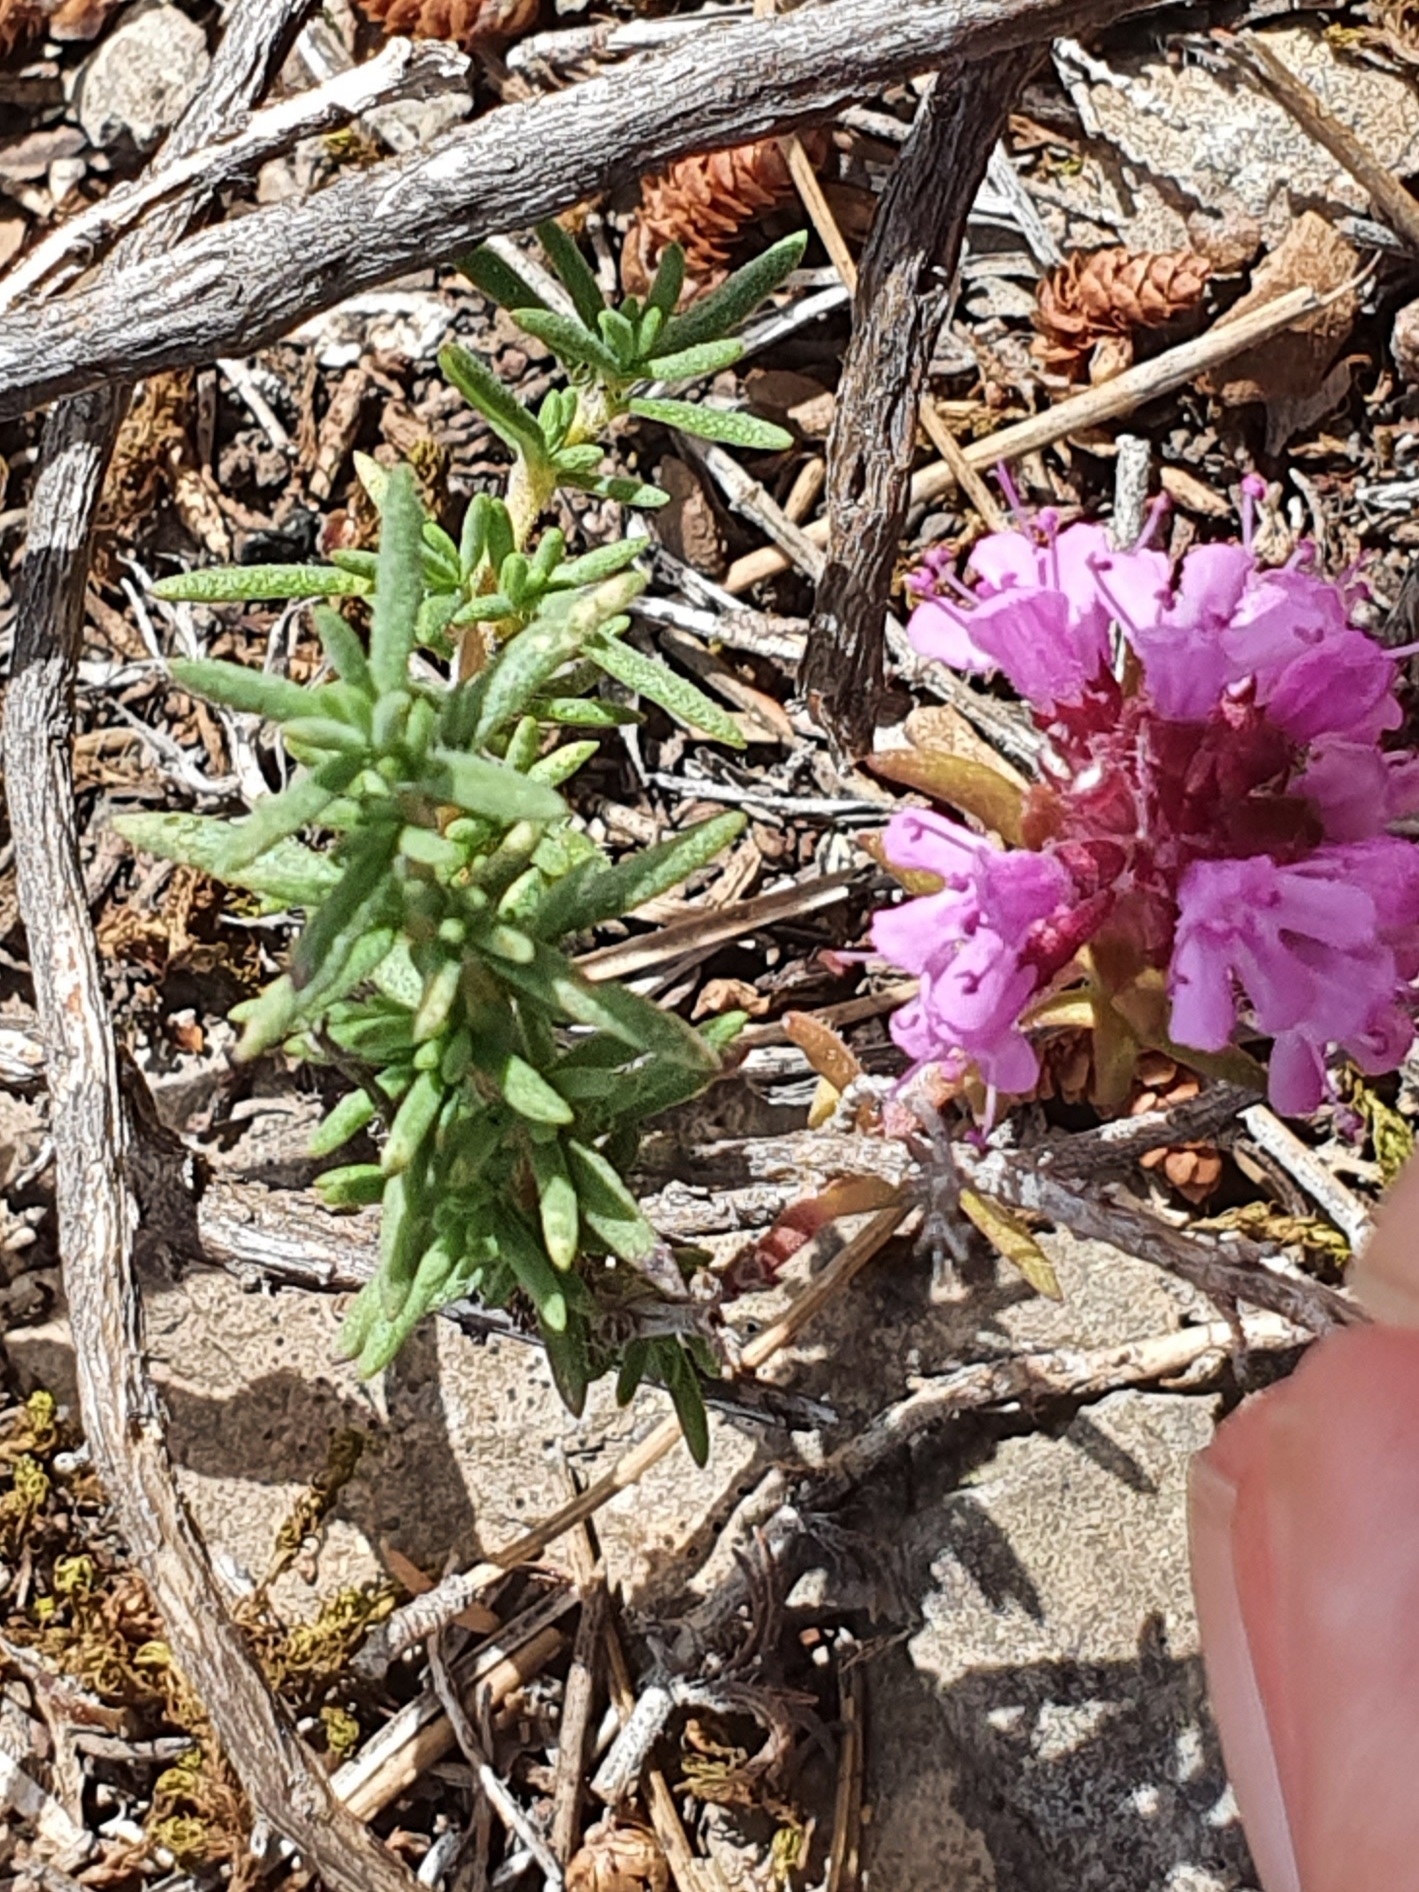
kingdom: Plantae
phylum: Tracheophyta
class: Magnoliopsida
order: Lamiales
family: Lamiaceae
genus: Thymus
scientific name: Thymus willdenowii
